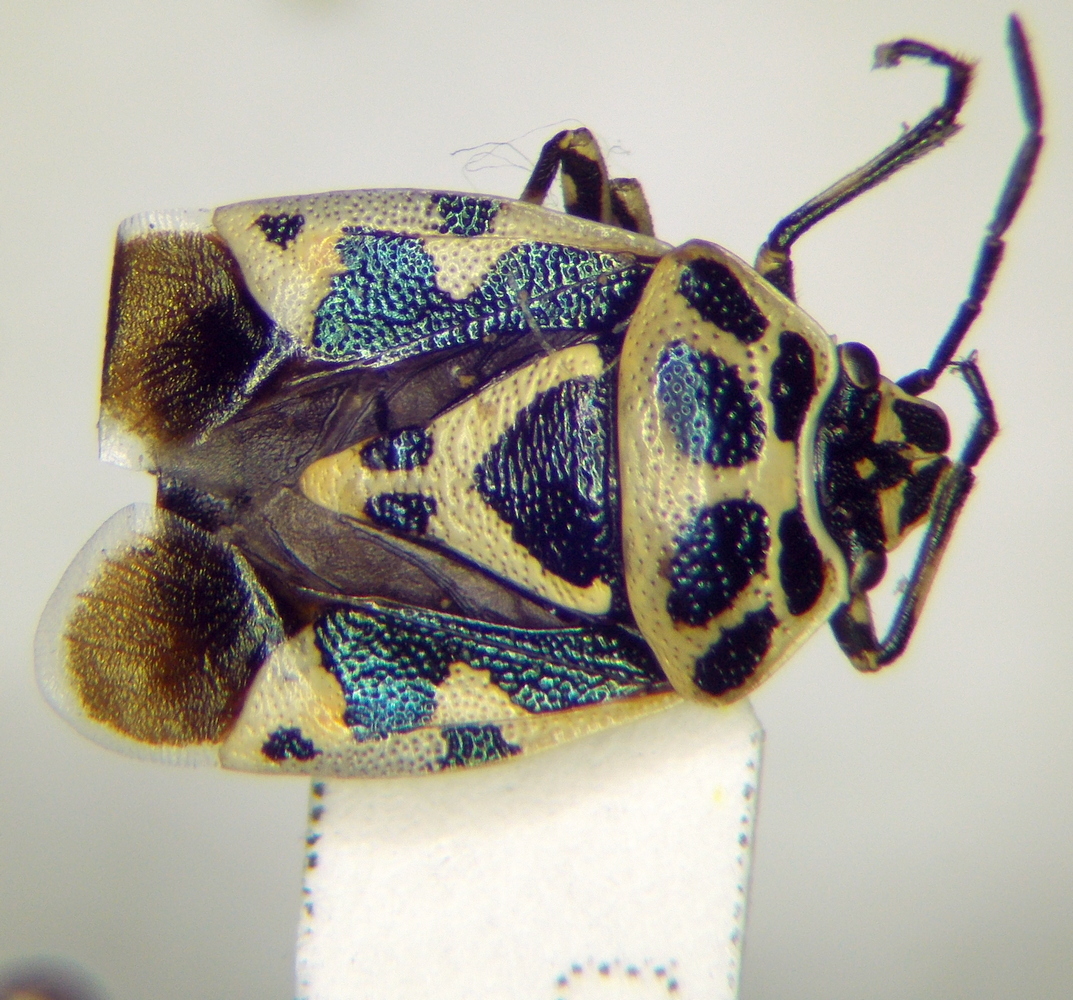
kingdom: Animalia
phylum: Arthropoda
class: Insecta
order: Hemiptera
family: Pentatomidae
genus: Eurydema
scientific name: Eurydema ornata
